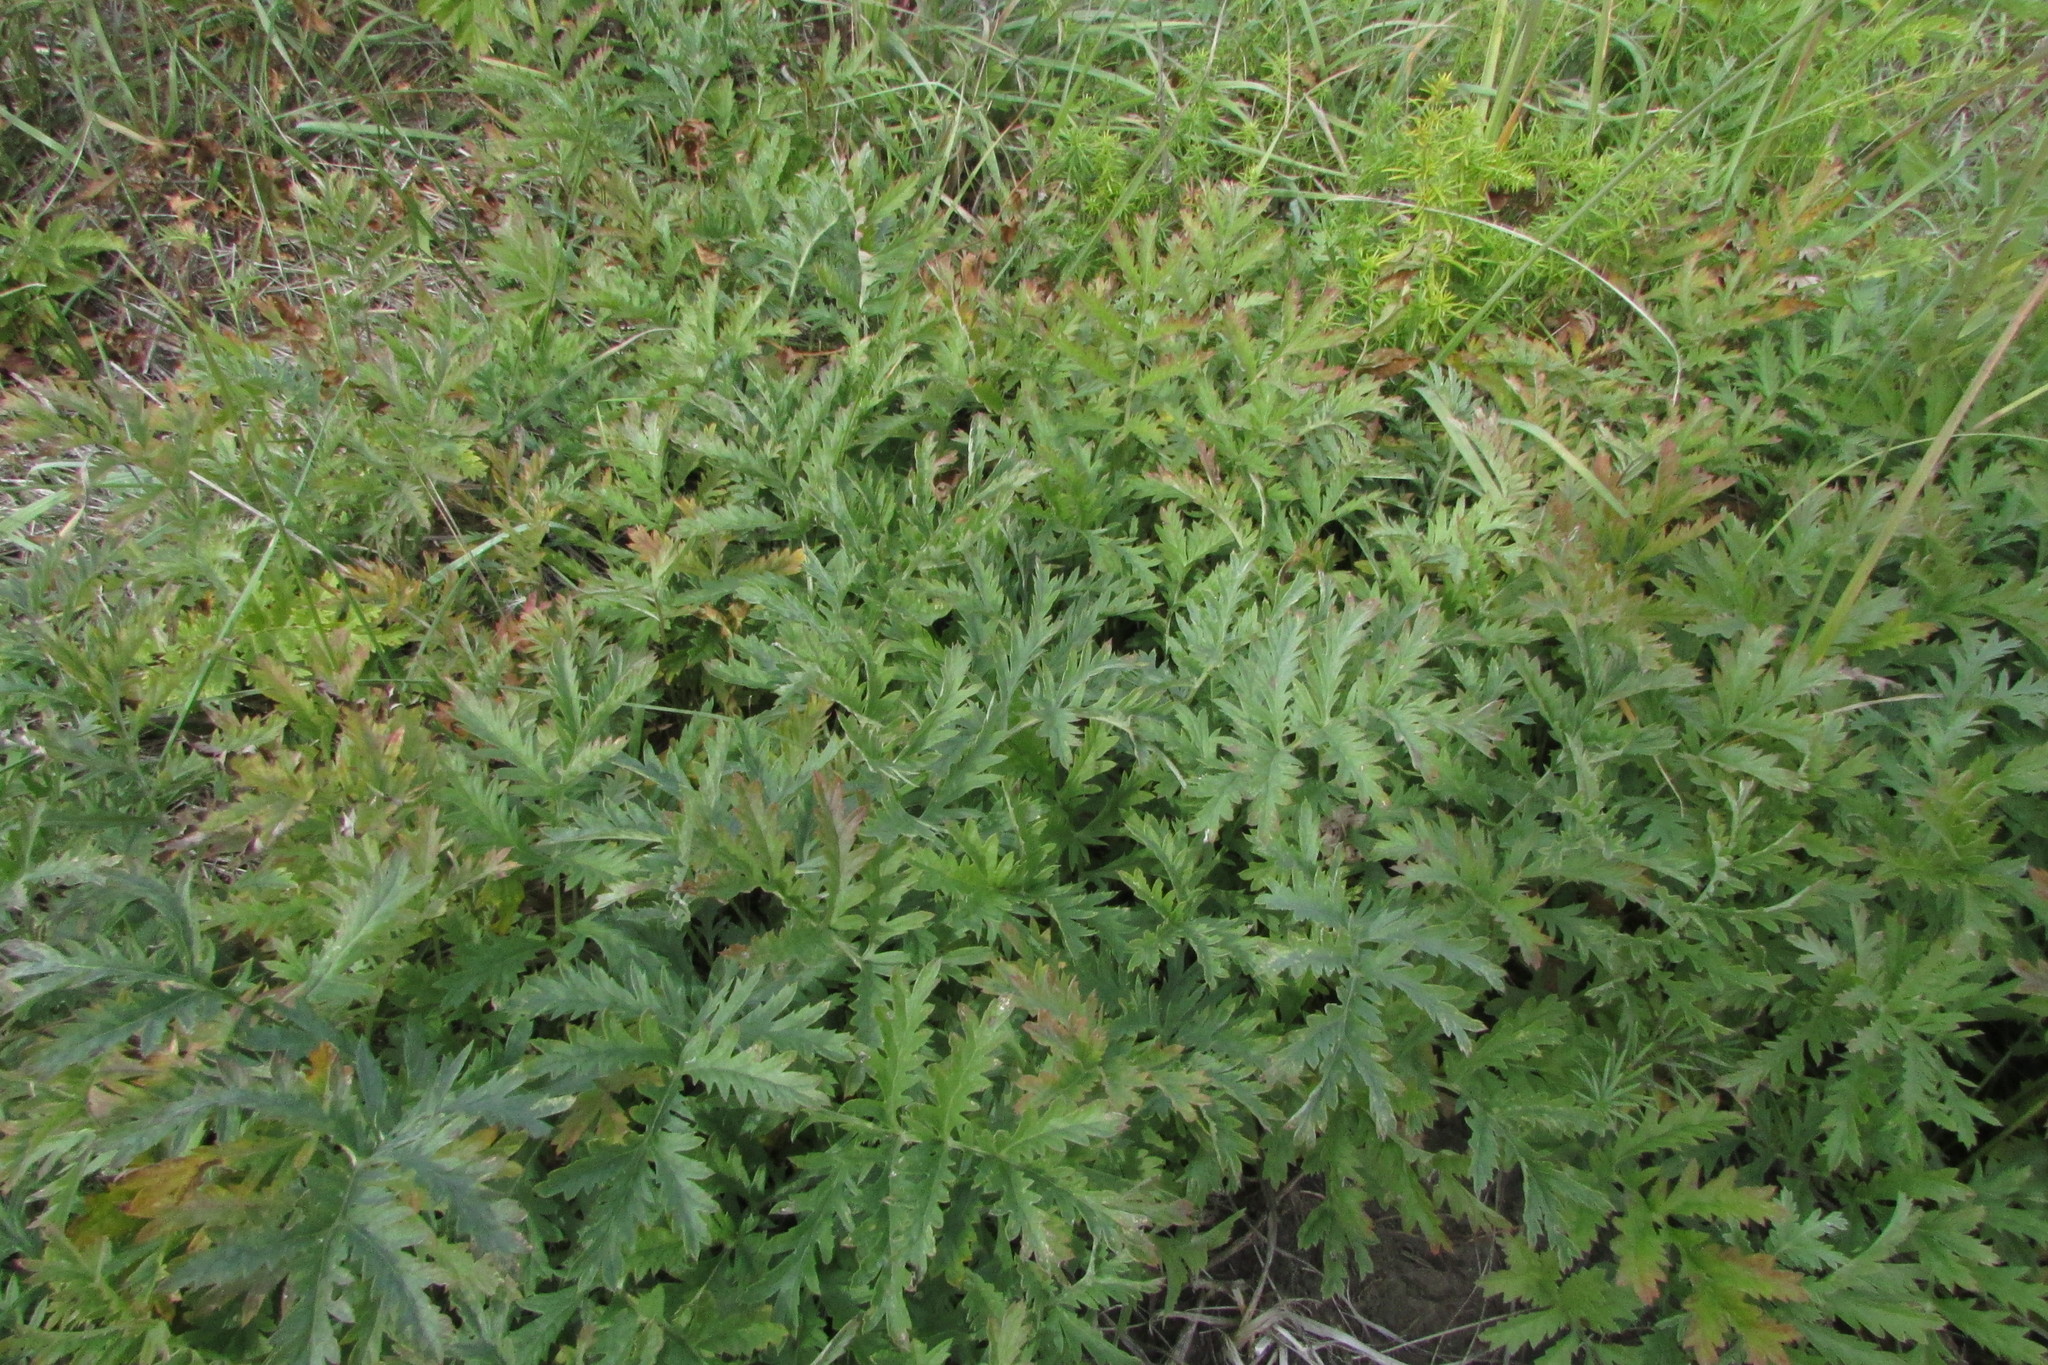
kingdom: Plantae
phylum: Tracheophyta
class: Magnoliopsida
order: Asterales
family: Asteraceae
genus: Artemisia
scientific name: Artemisia armeniaca
